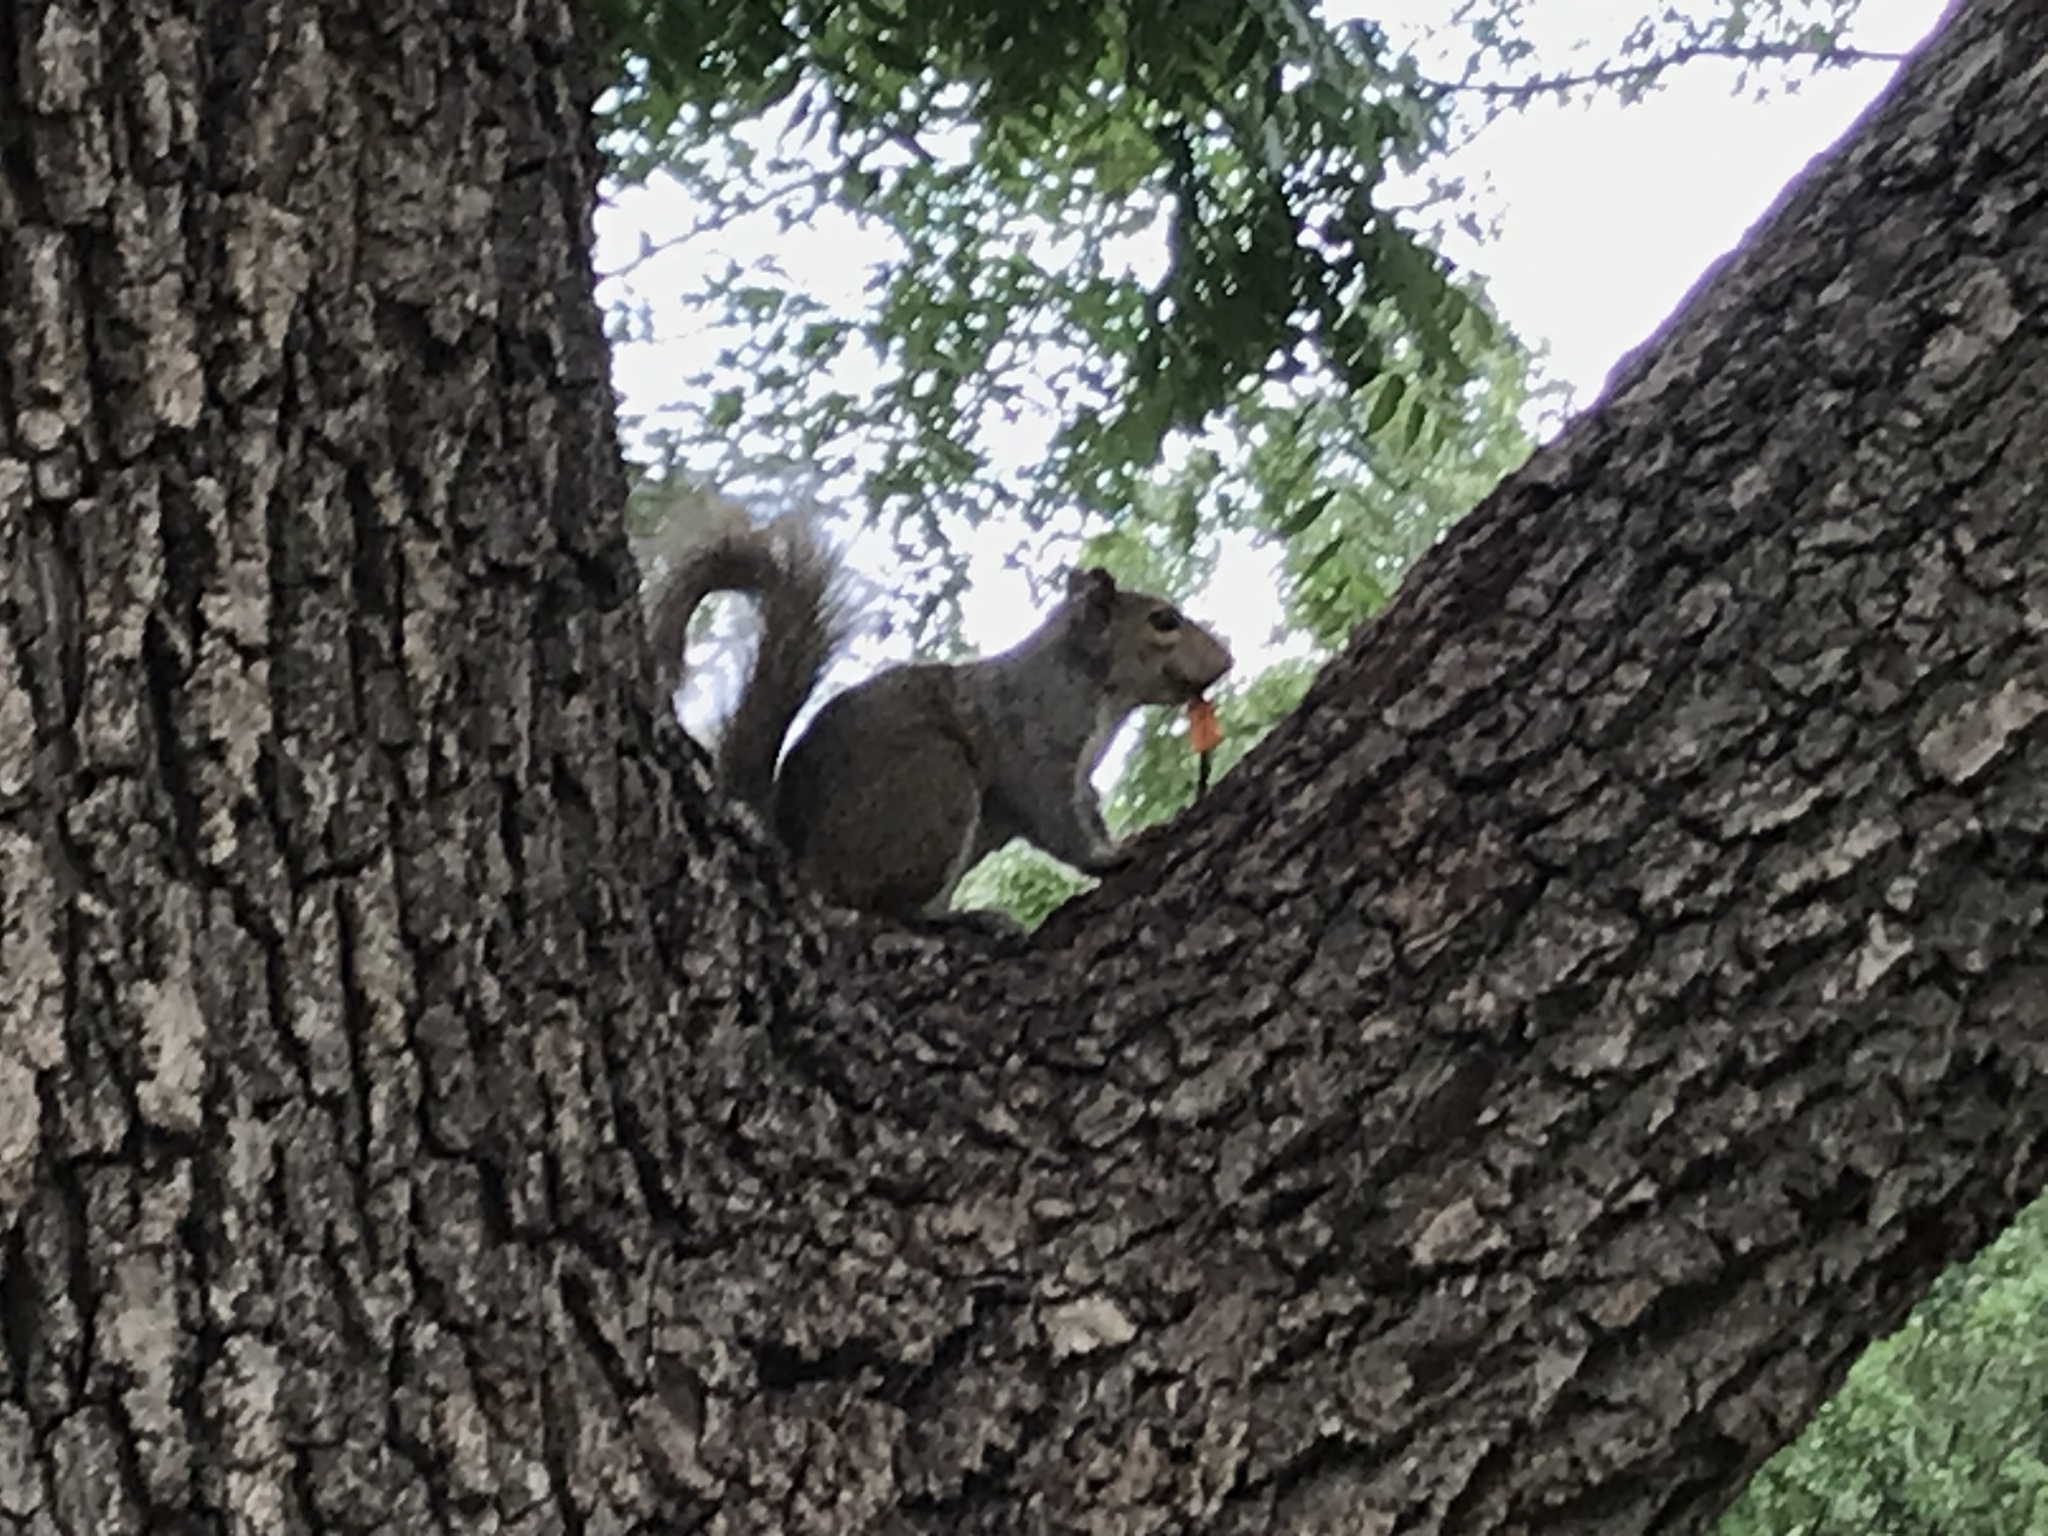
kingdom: Animalia
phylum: Chordata
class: Mammalia
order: Rodentia
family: Sciuridae
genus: Sciurus
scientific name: Sciurus carolinensis
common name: Eastern gray squirrel
